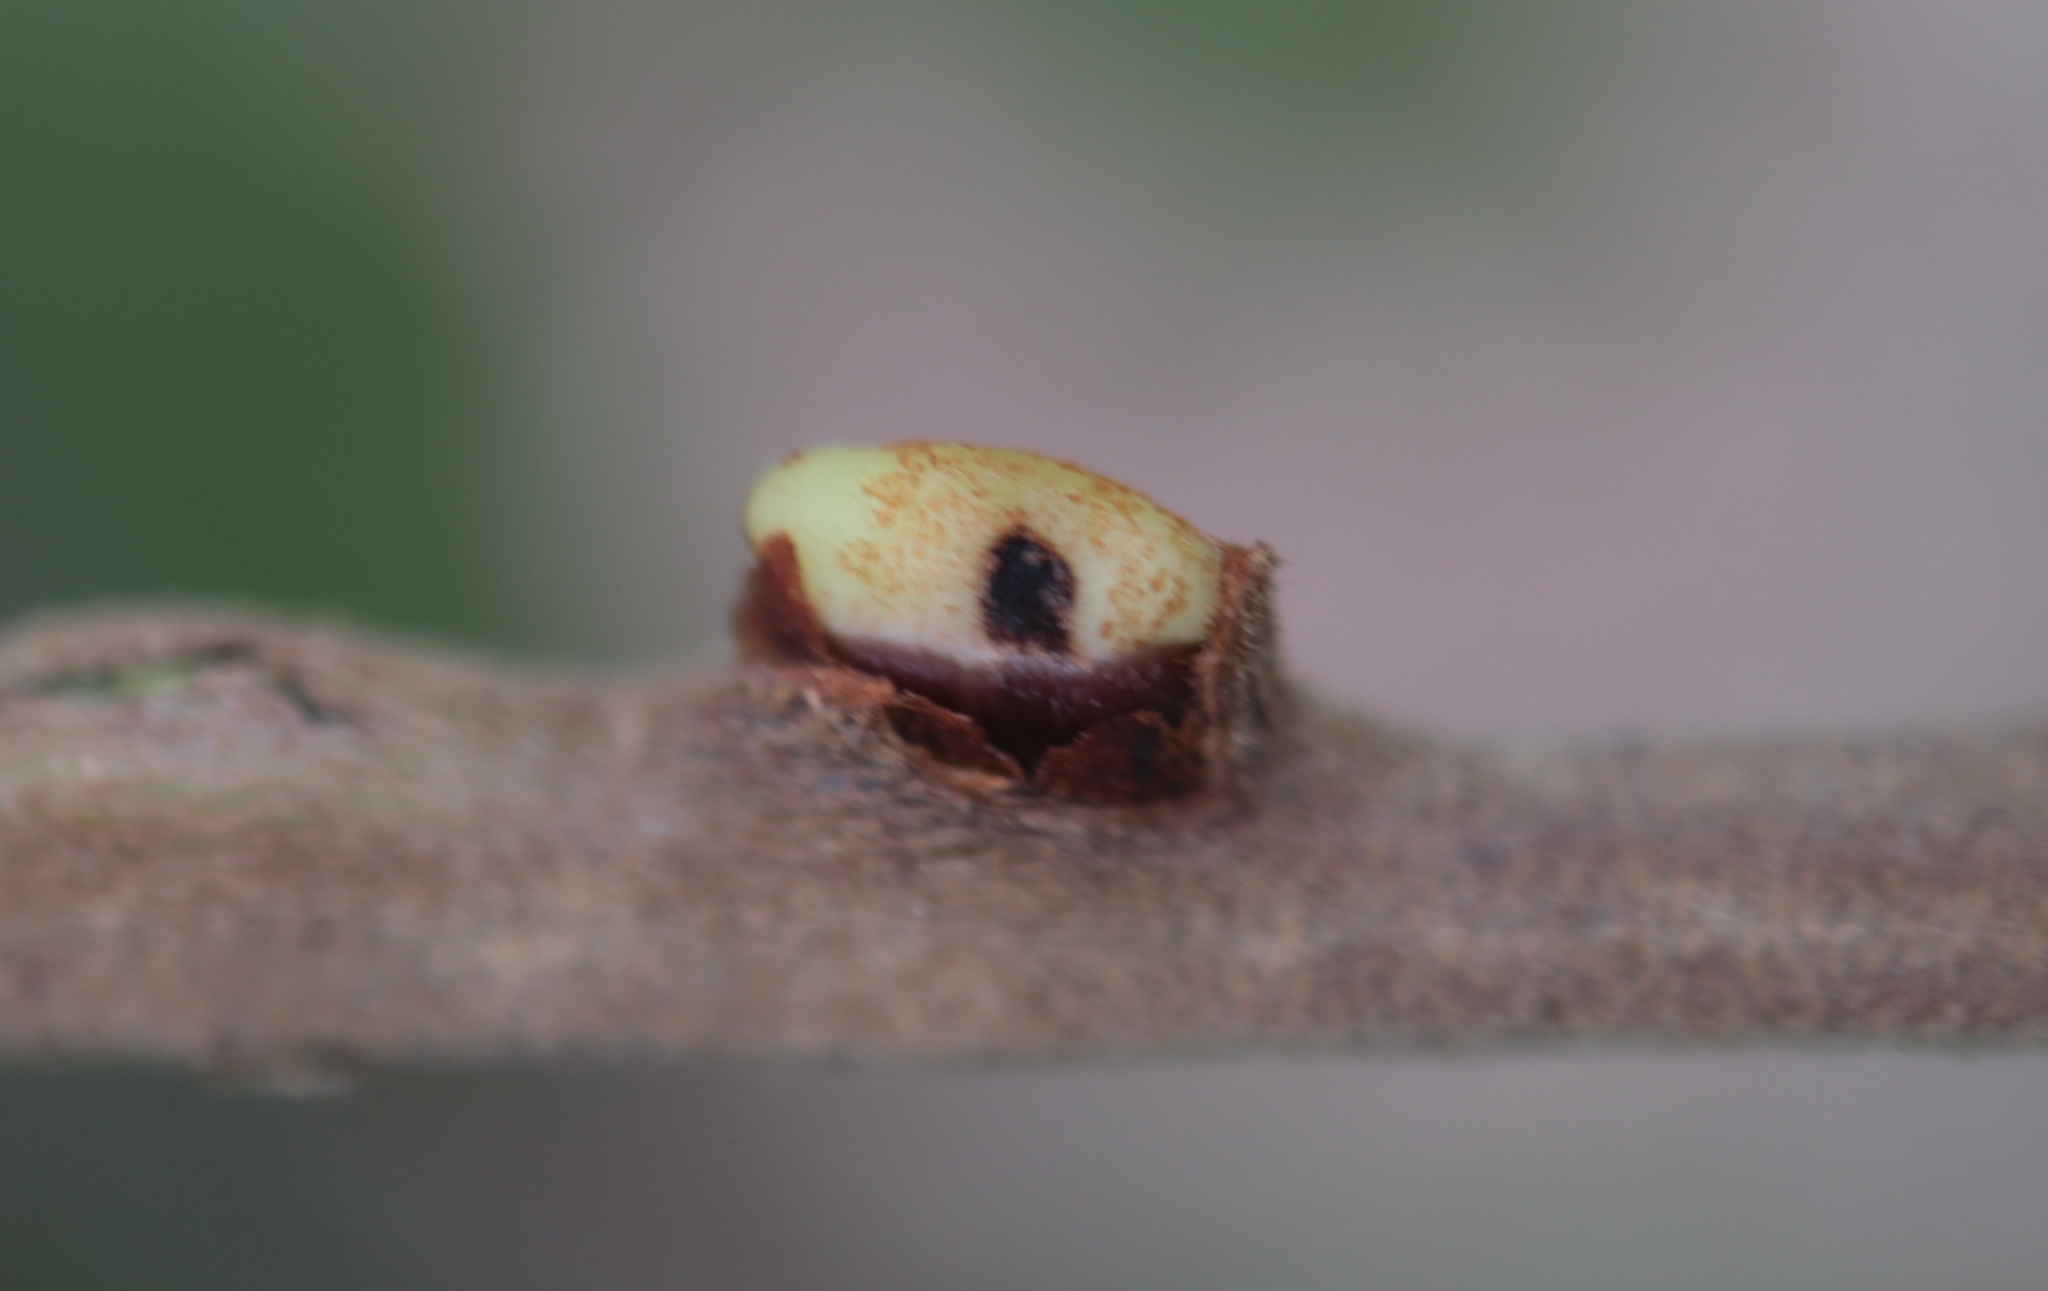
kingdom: Animalia
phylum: Arthropoda
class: Insecta
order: Hymenoptera
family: Cynipidae
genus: Callirhytis
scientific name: Callirhytis
